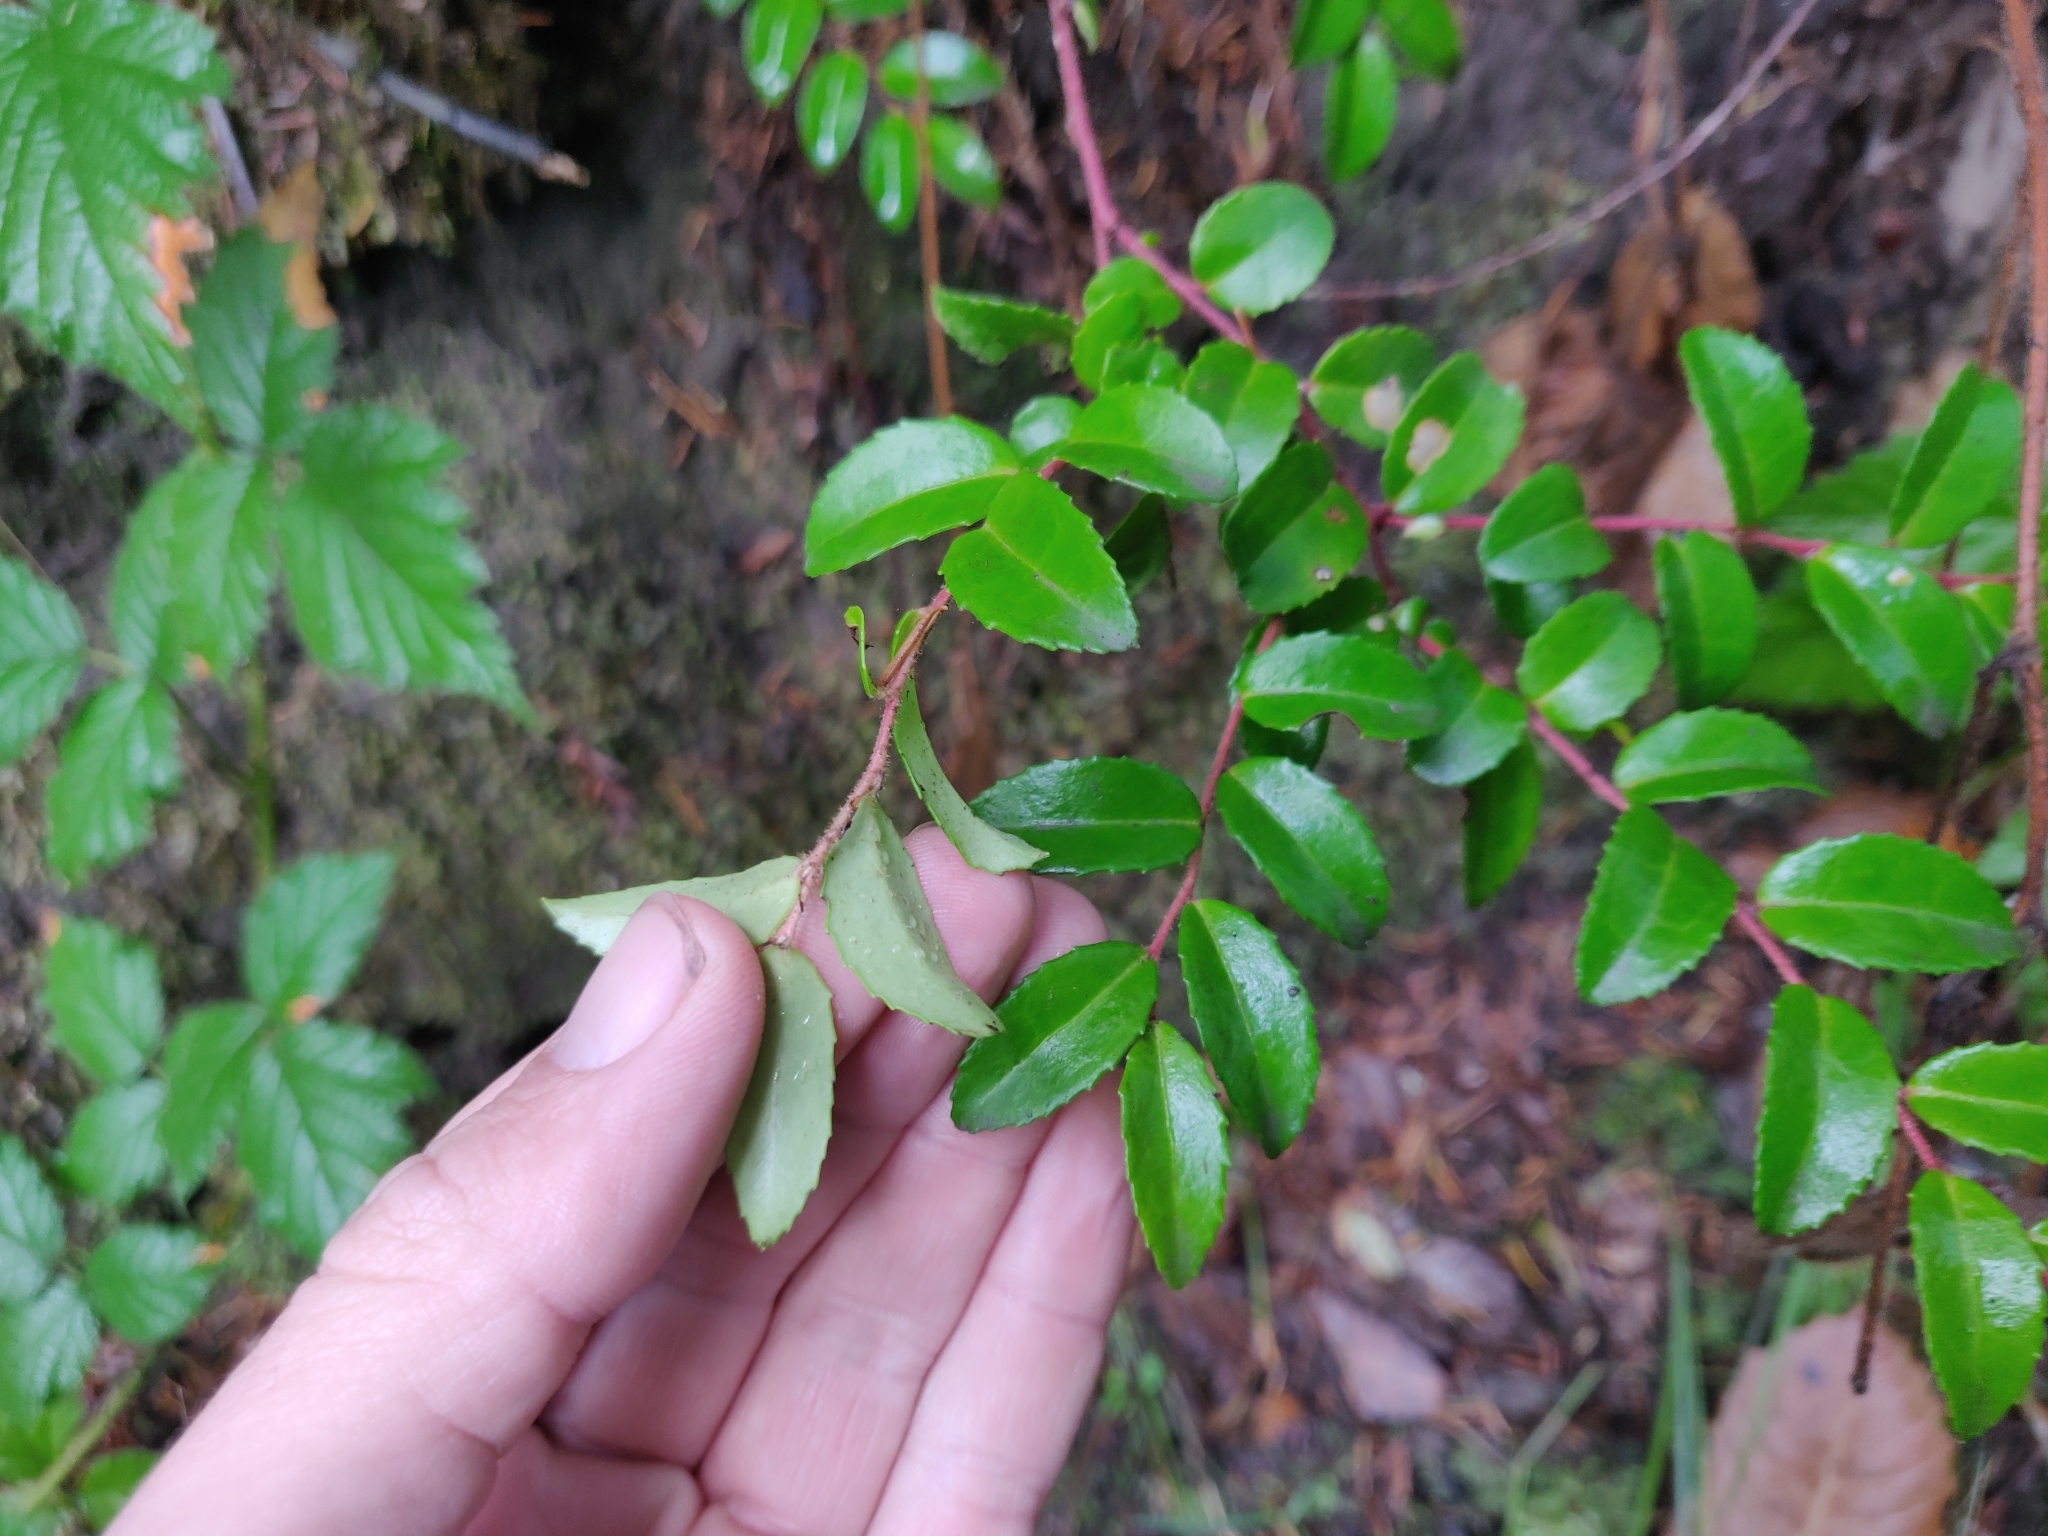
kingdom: Plantae
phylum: Tracheophyta
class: Magnoliopsida
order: Ericales
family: Ericaceae
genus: Vaccinium
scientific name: Vaccinium ovatum
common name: California-huckleberry
